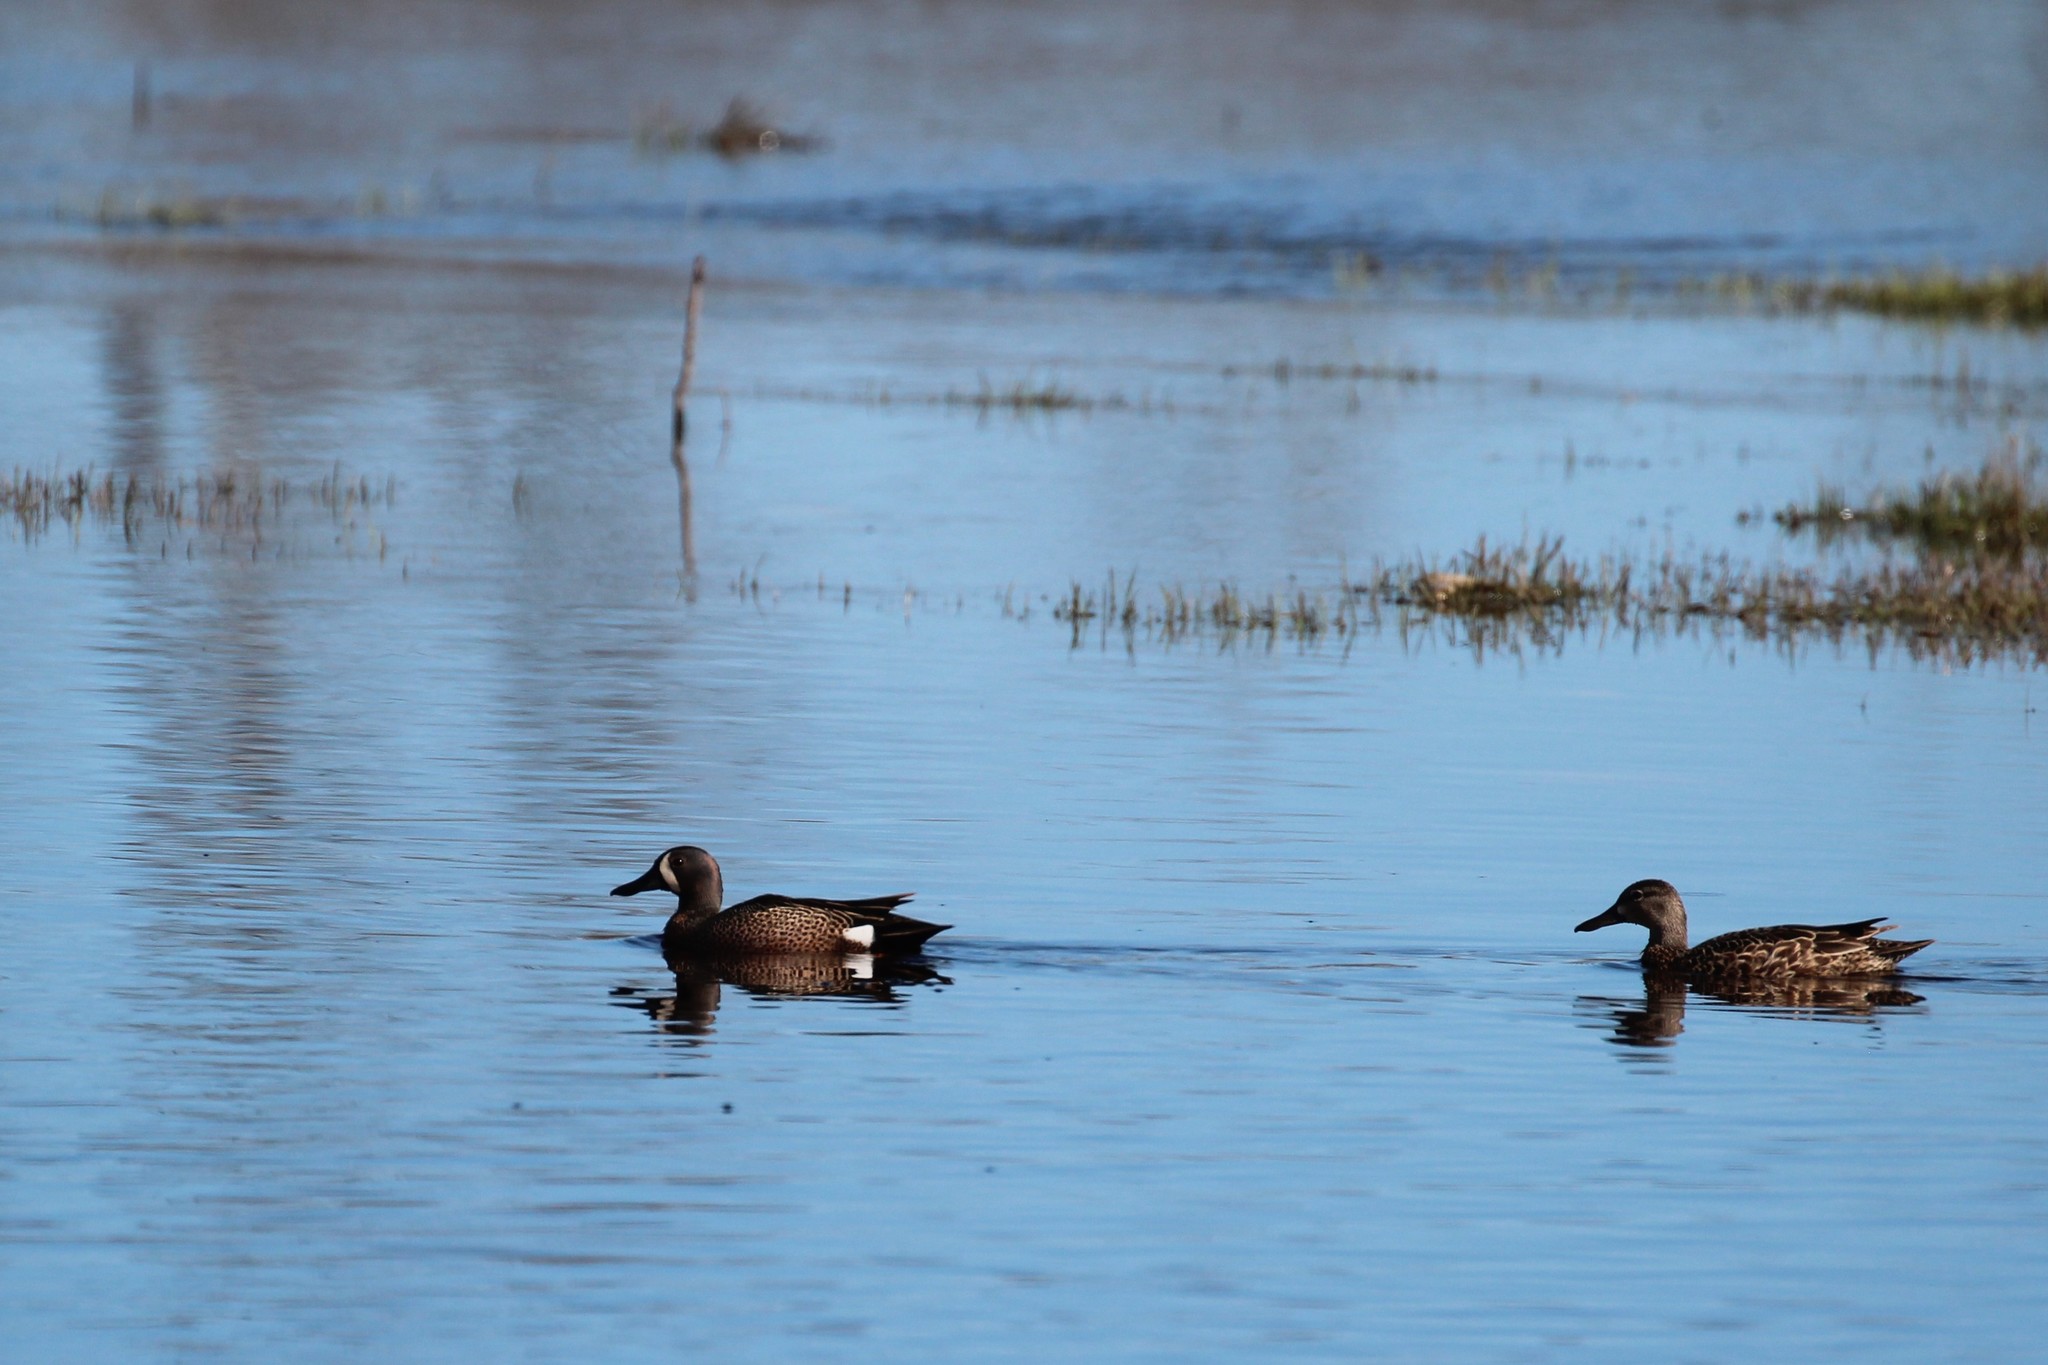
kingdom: Animalia
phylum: Chordata
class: Aves
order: Anseriformes
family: Anatidae
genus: Spatula
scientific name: Spatula discors
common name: Blue-winged teal
